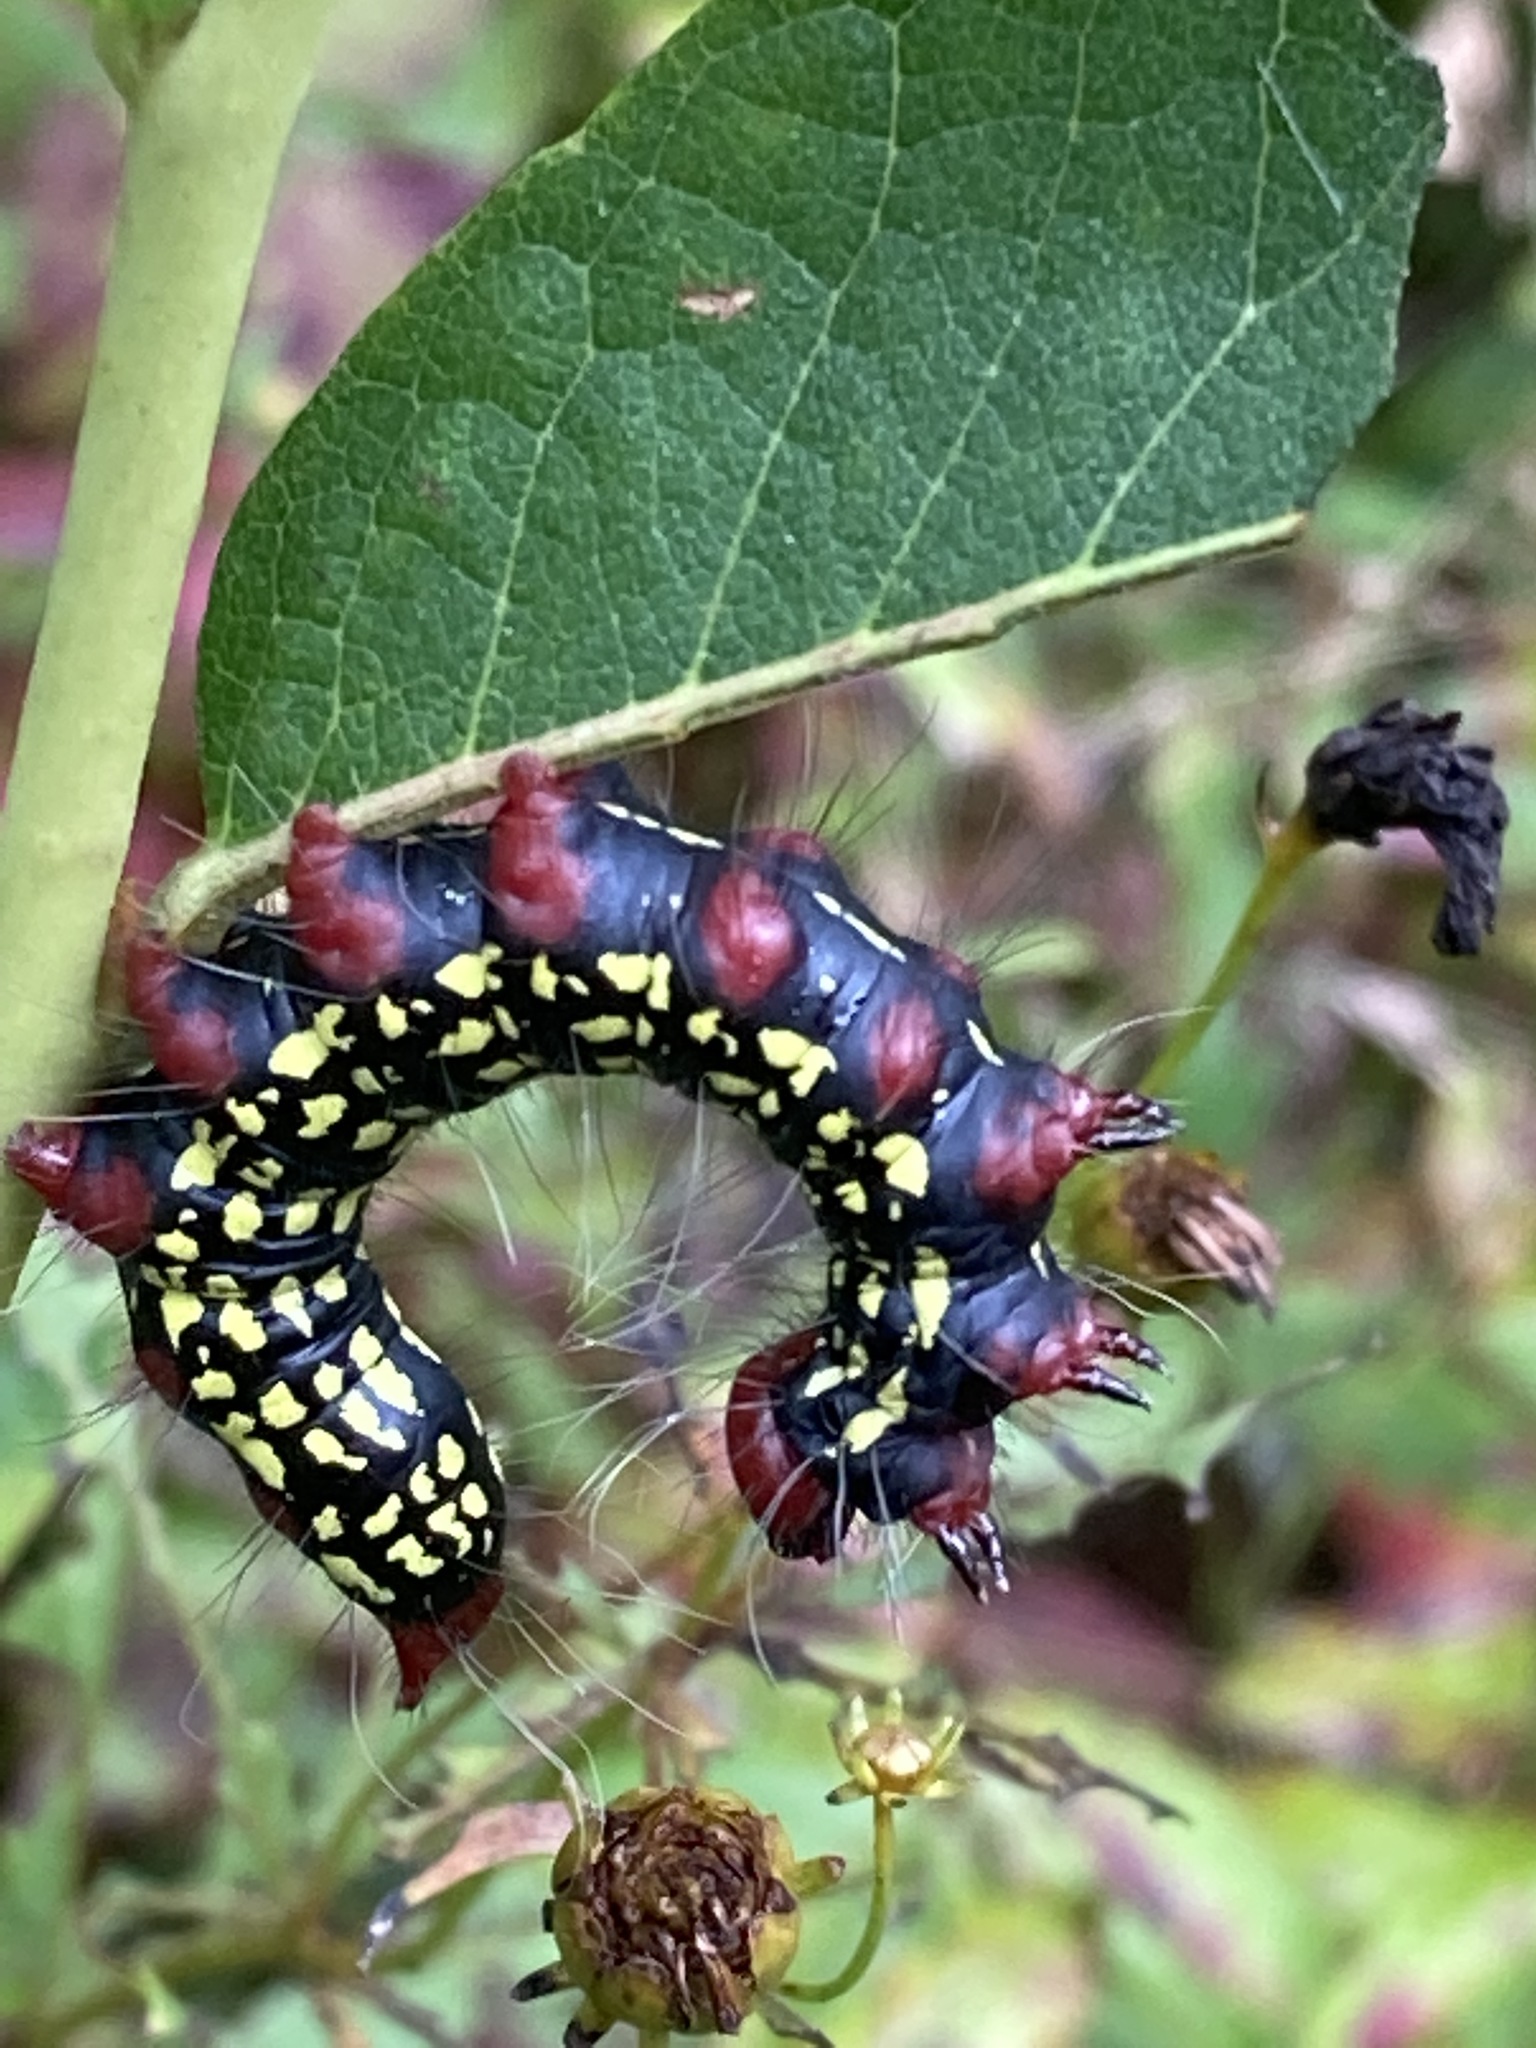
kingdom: Animalia
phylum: Arthropoda
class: Insecta
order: Lepidoptera
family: Notodontidae
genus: Datana
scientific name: Datana major
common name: Azalea caterpillar
